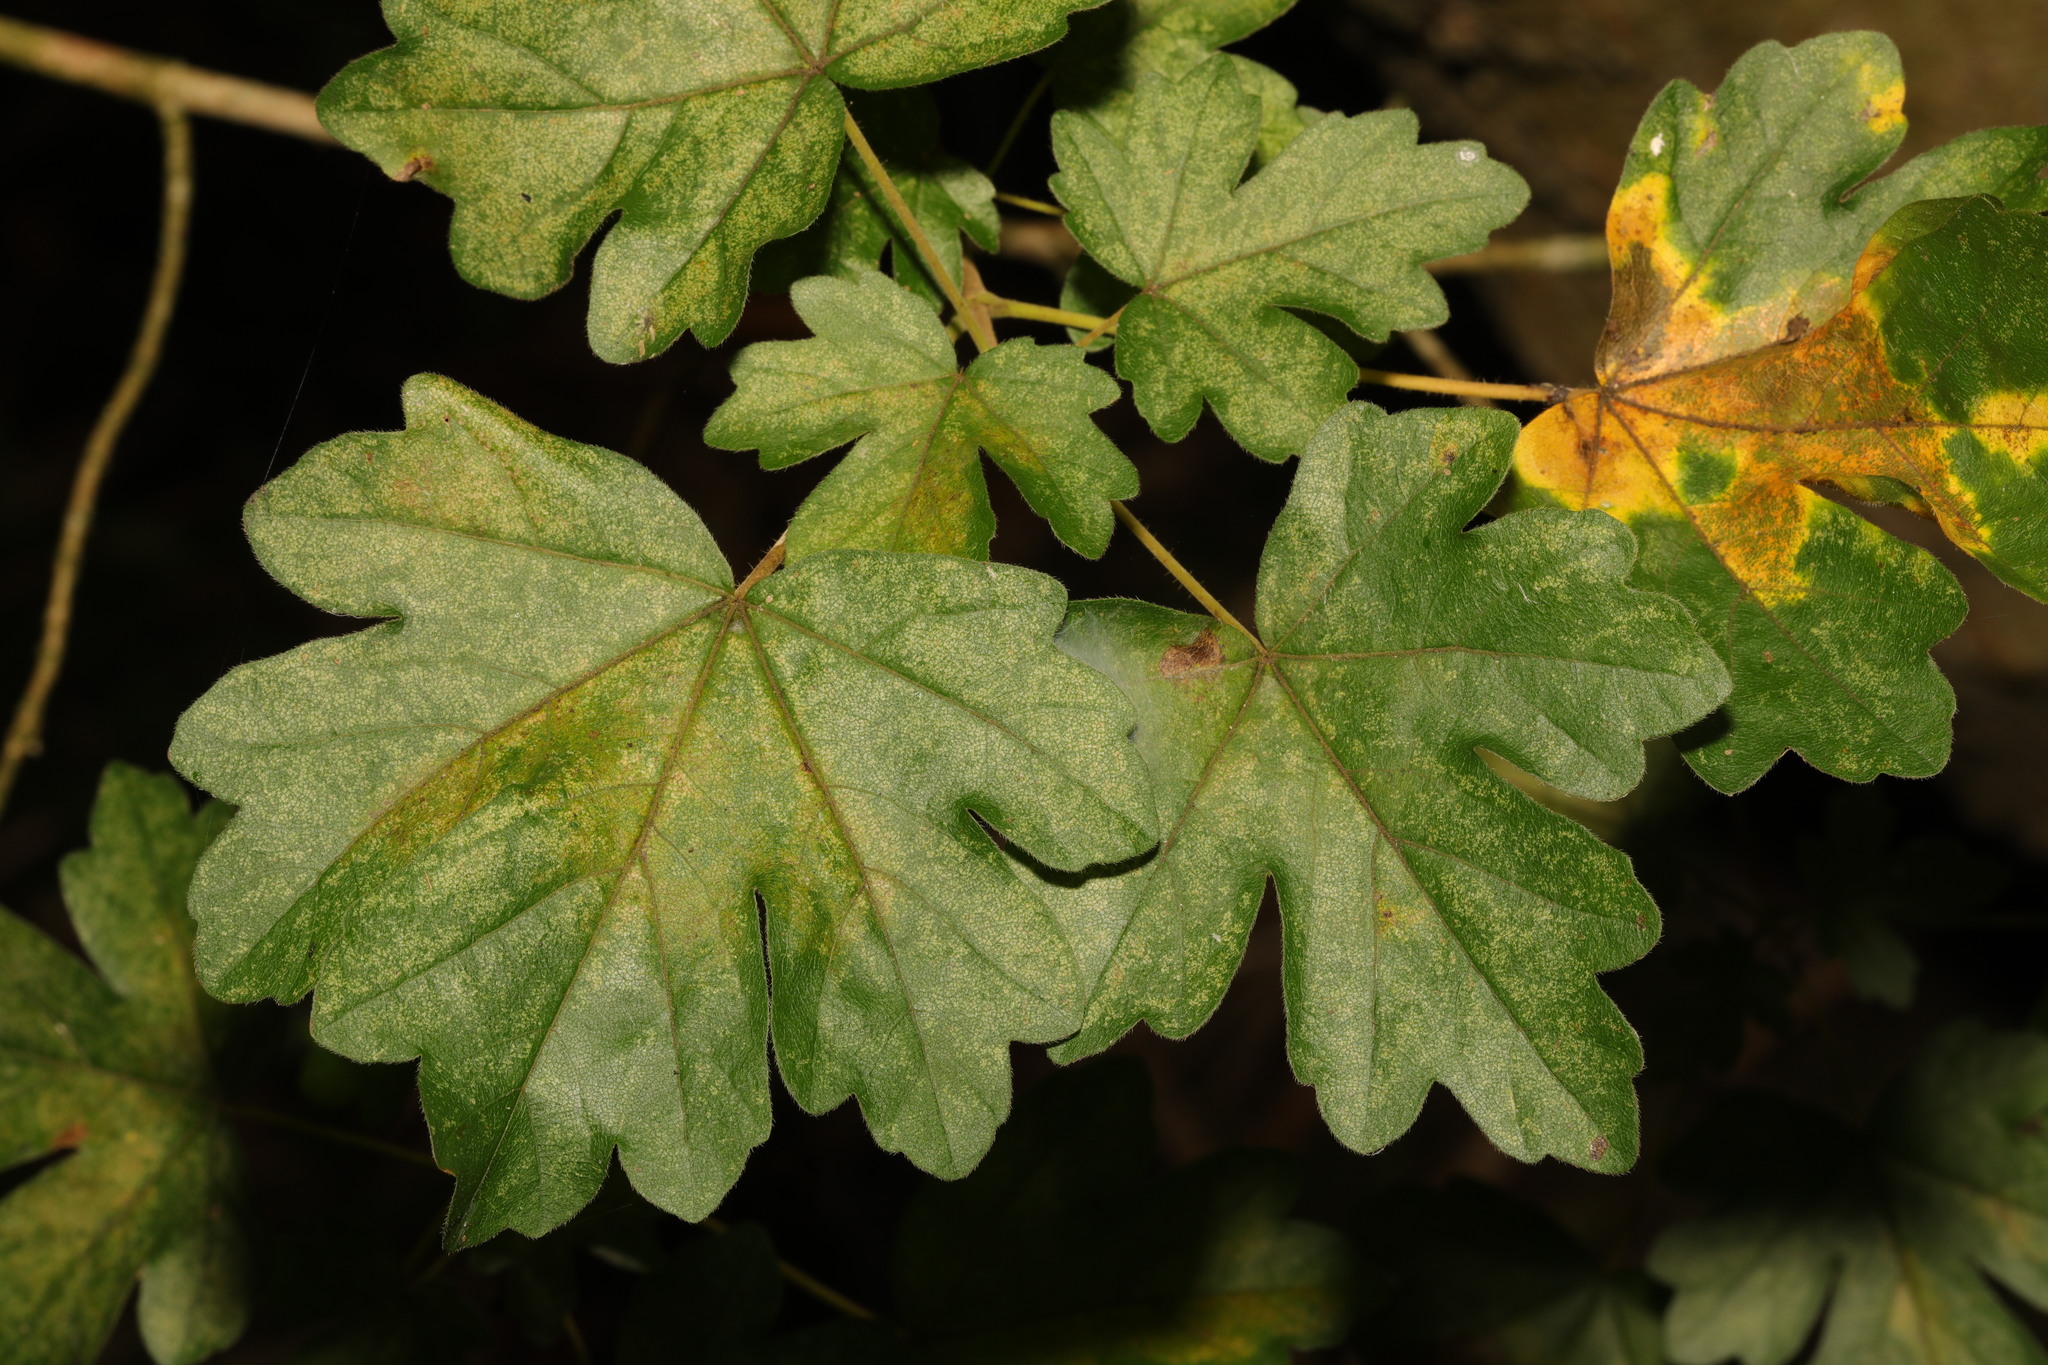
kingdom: Plantae
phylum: Tracheophyta
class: Magnoliopsida
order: Sapindales
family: Sapindaceae
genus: Acer
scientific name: Acer campestre
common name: Field maple
